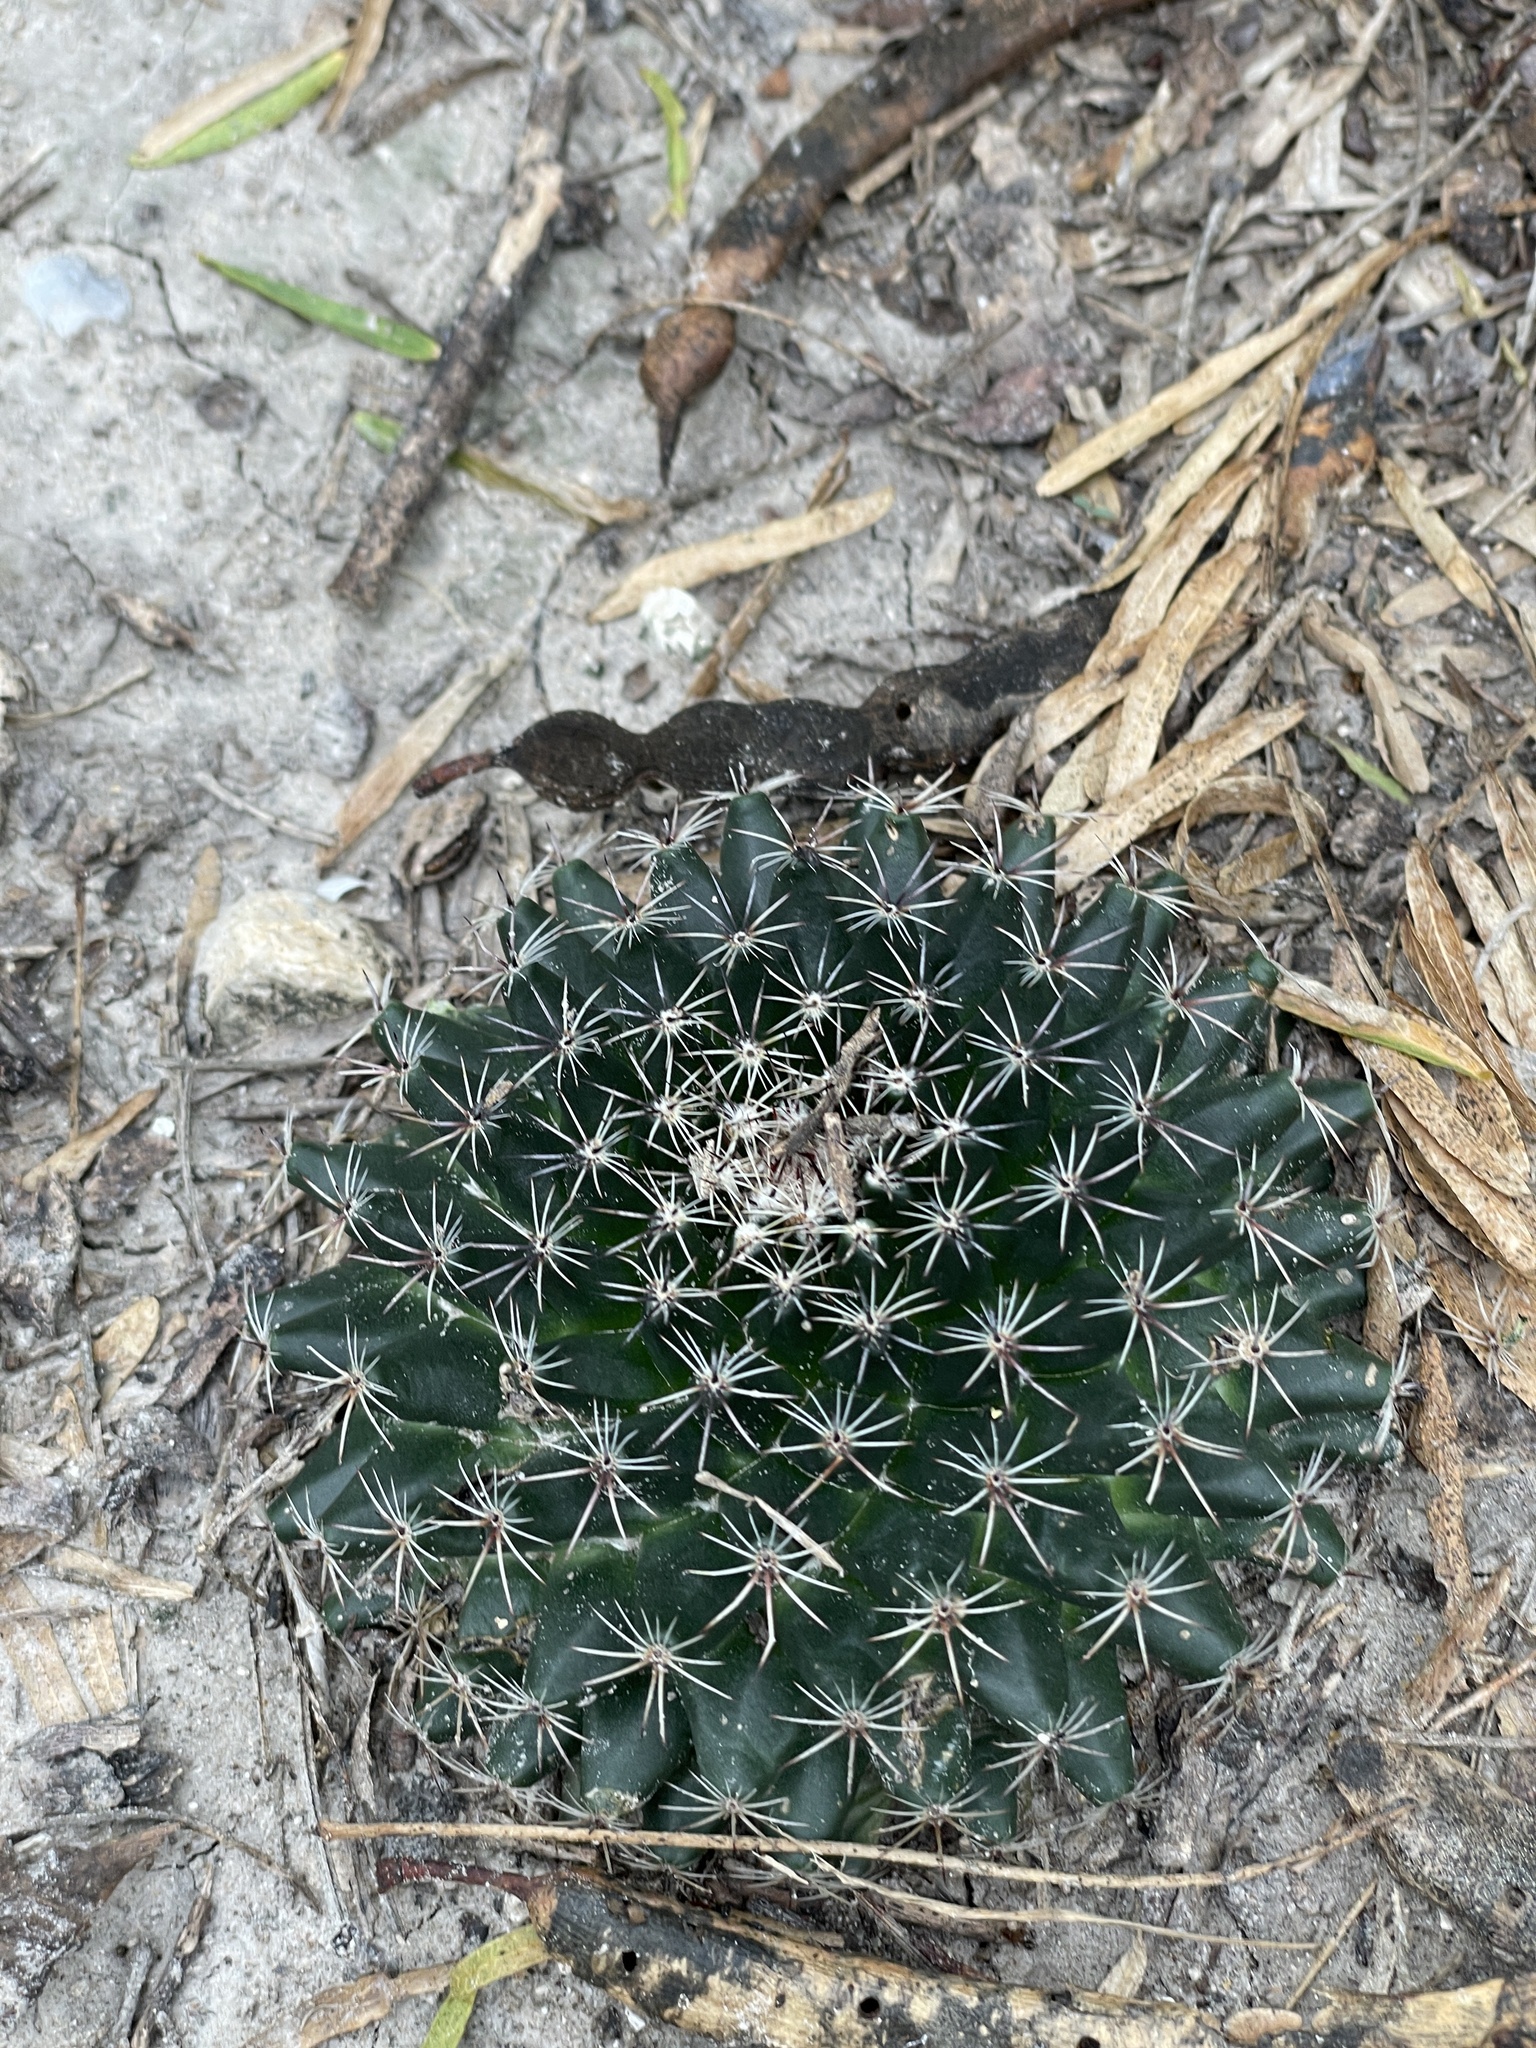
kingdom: Plantae
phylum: Tracheophyta
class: Magnoliopsida
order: Caryophyllales
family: Cactaceae
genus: Mammillaria
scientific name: Mammillaria heyderi
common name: Little nipple cactus
